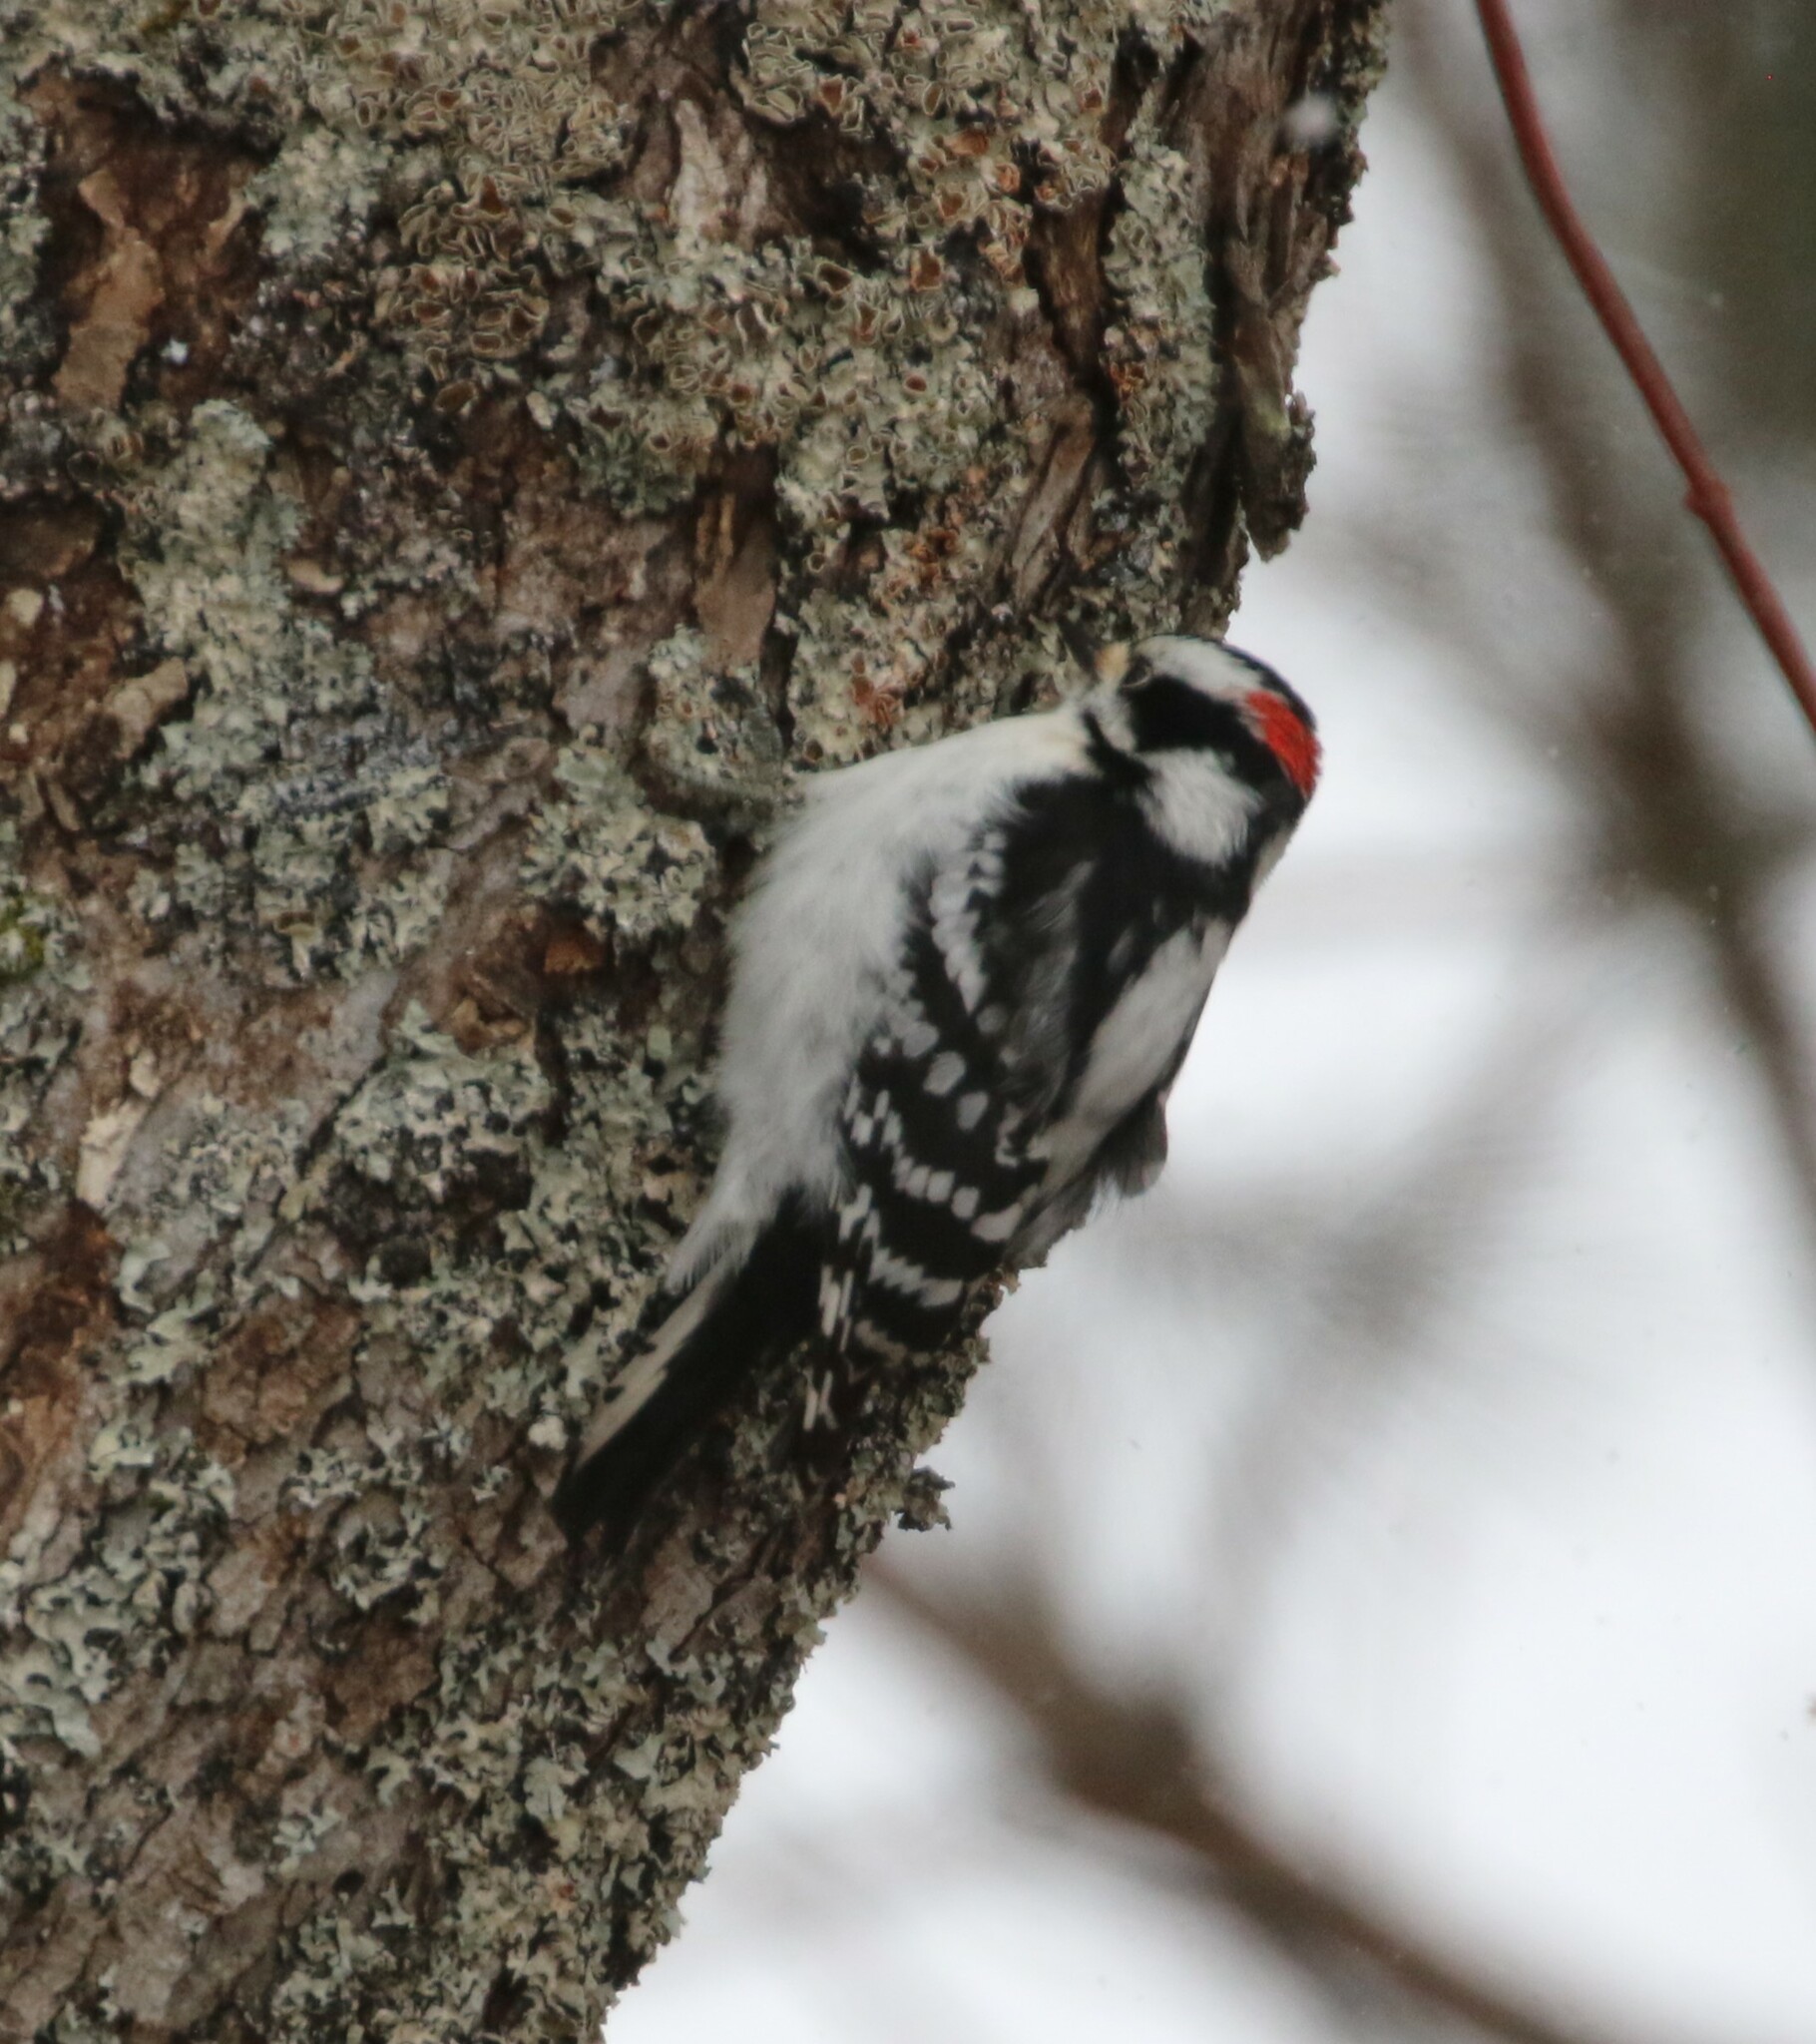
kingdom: Animalia
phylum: Chordata
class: Aves
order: Piciformes
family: Picidae
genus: Dryobates
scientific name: Dryobates pubescens
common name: Downy woodpecker
